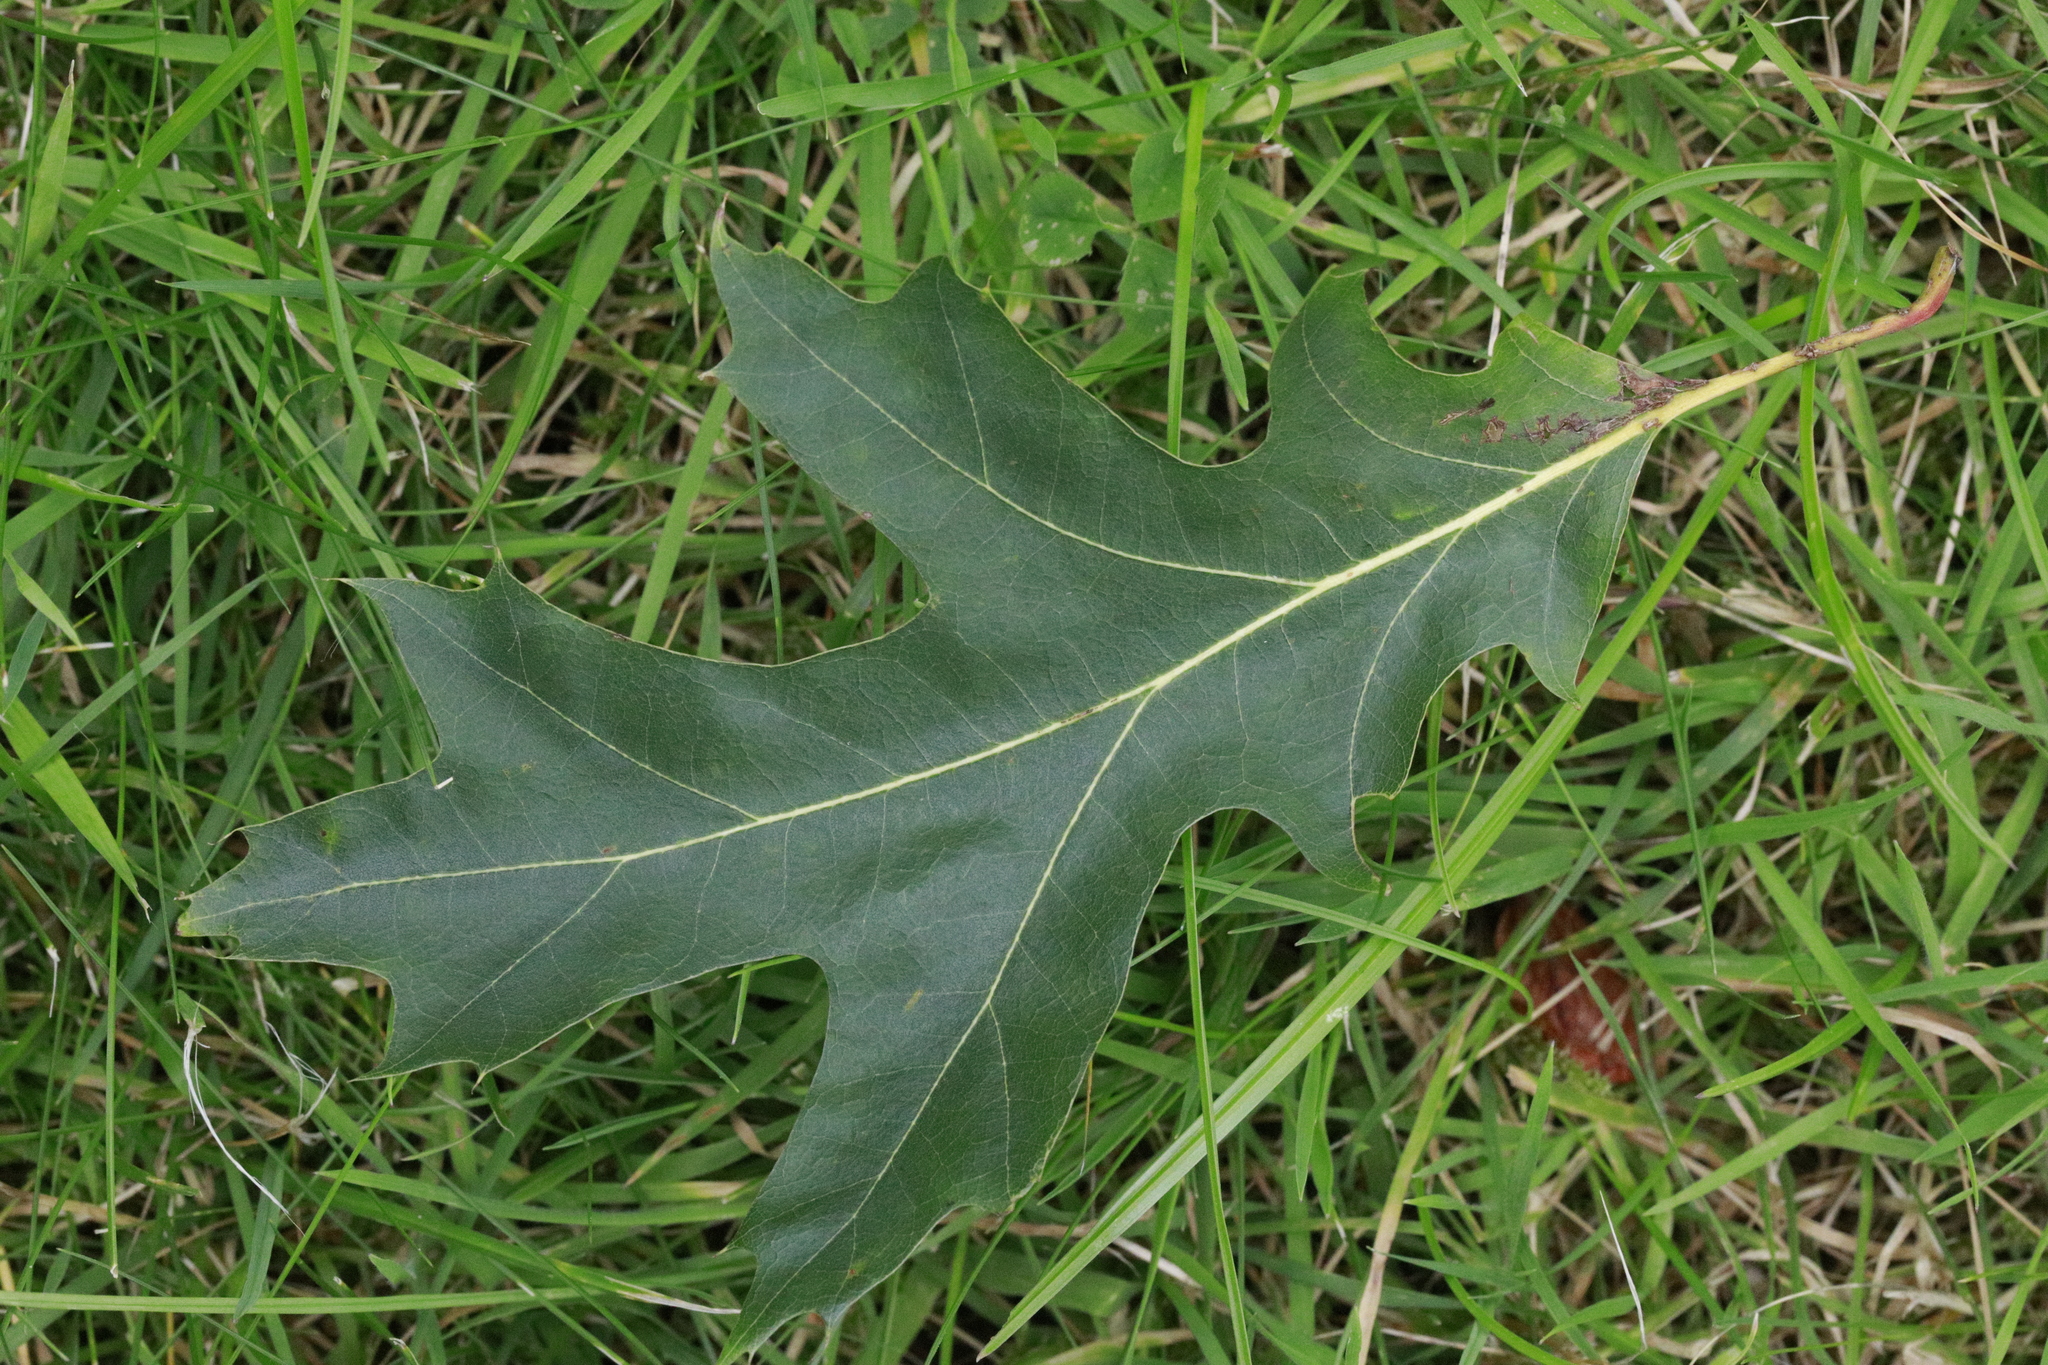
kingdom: Plantae
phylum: Tracheophyta
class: Magnoliopsida
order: Fagales
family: Fagaceae
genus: Quercus
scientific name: Quercus rubra
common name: Red oak
